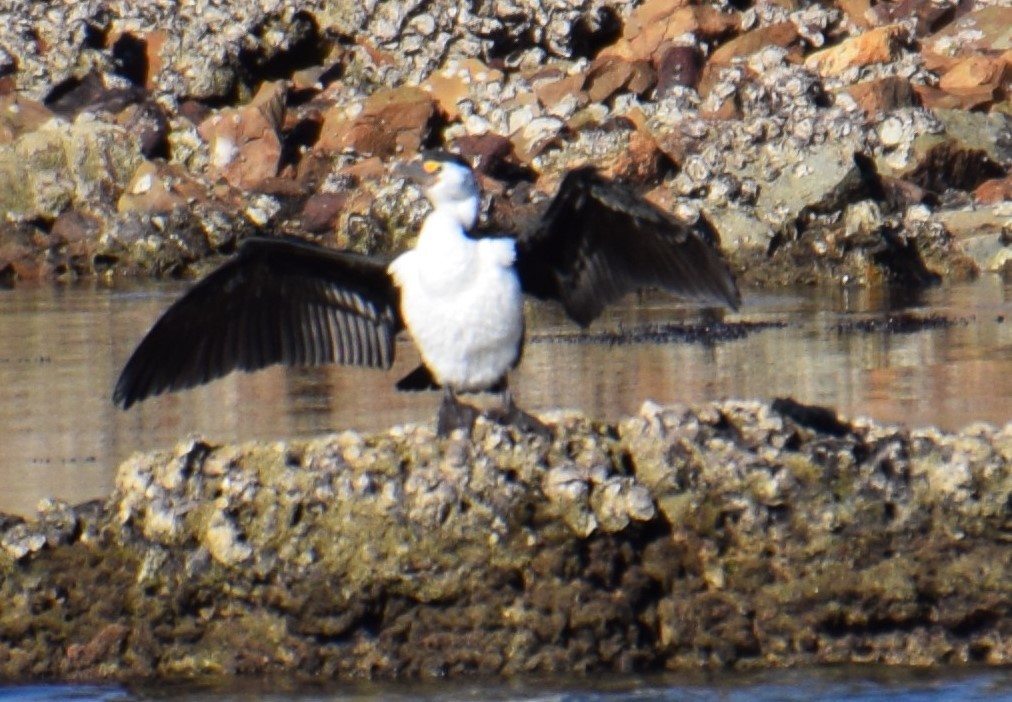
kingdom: Animalia
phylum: Chordata
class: Aves
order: Suliformes
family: Phalacrocoracidae
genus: Phalacrocorax
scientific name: Phalacrocorax varius
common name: Pied cormorant
